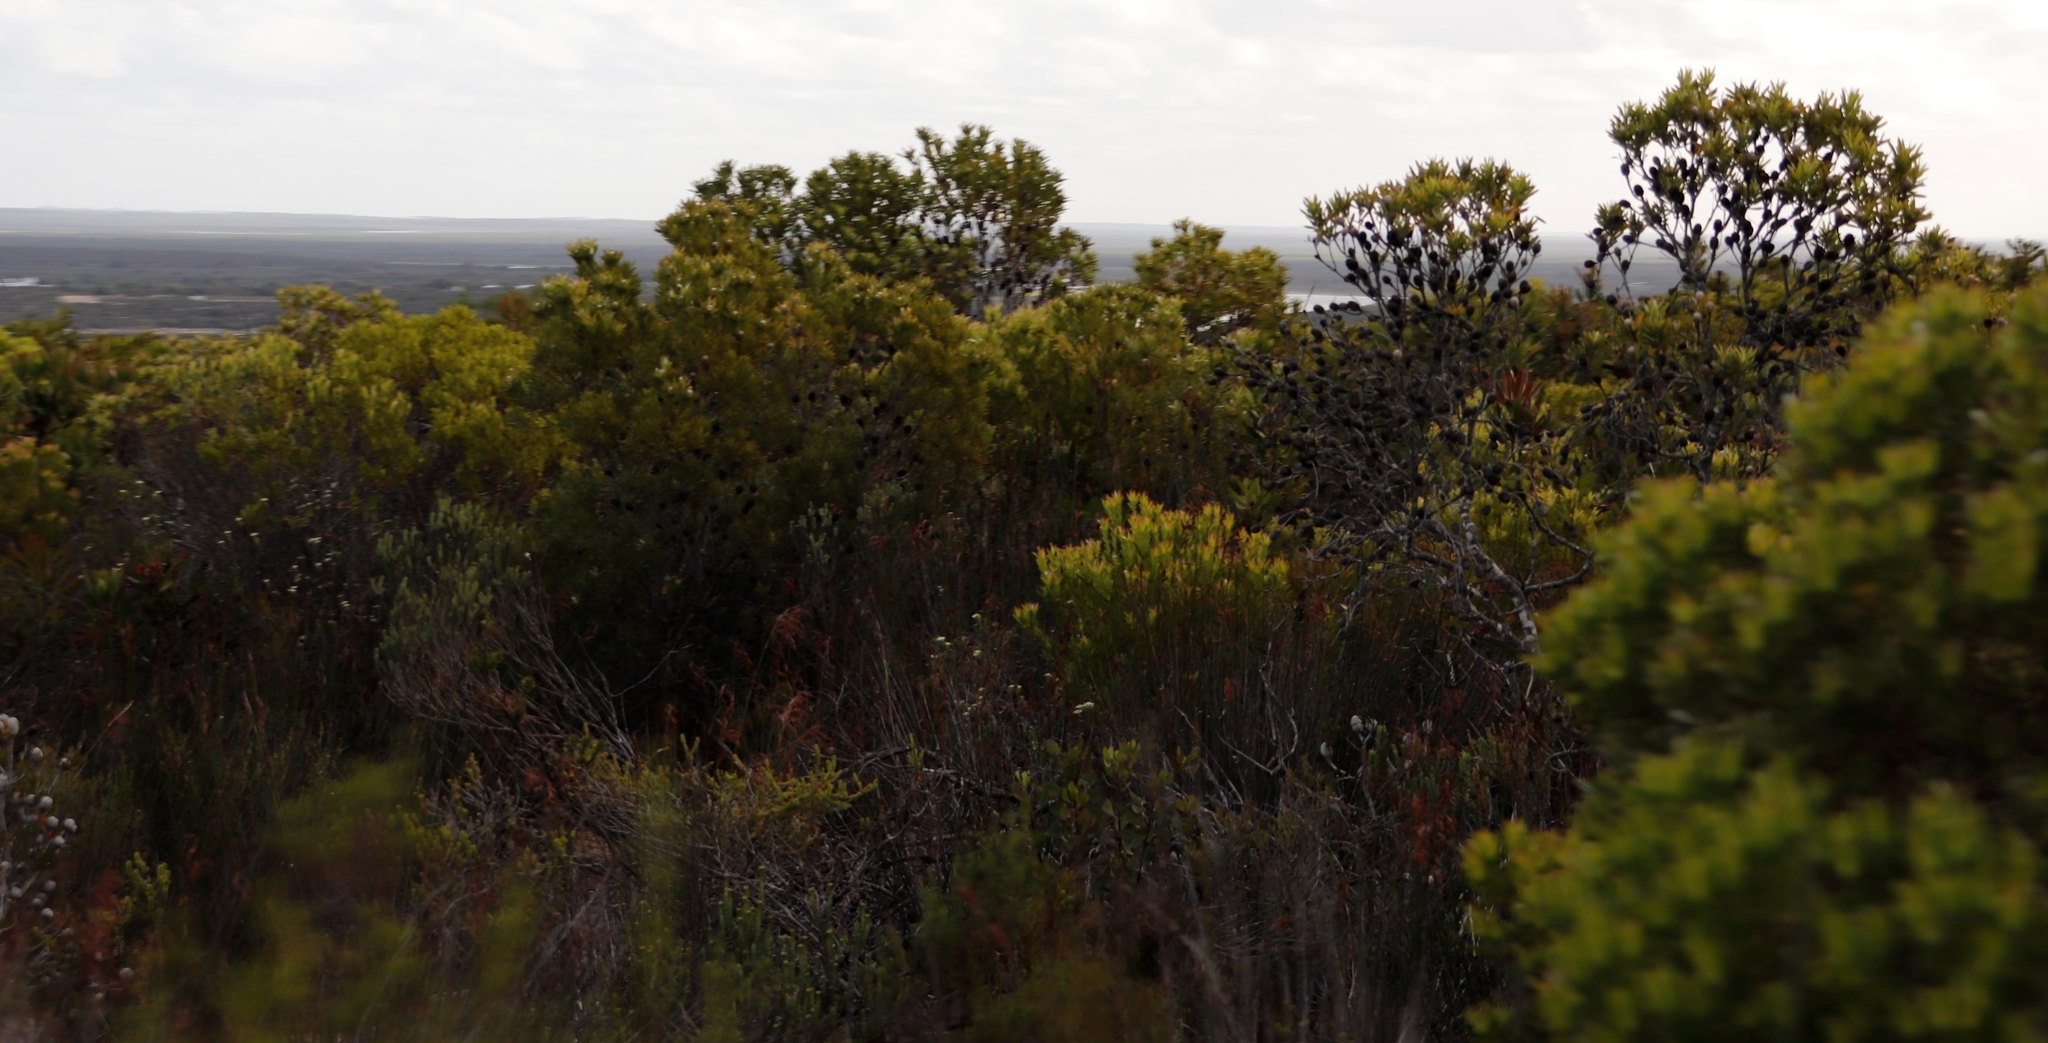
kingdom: Plantae
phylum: Tracheophyta
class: Magnoliopsida
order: Proteales
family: Proteaceae
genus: Leucadendron
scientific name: Leucadendron muirii
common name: Silver-ball conebush
